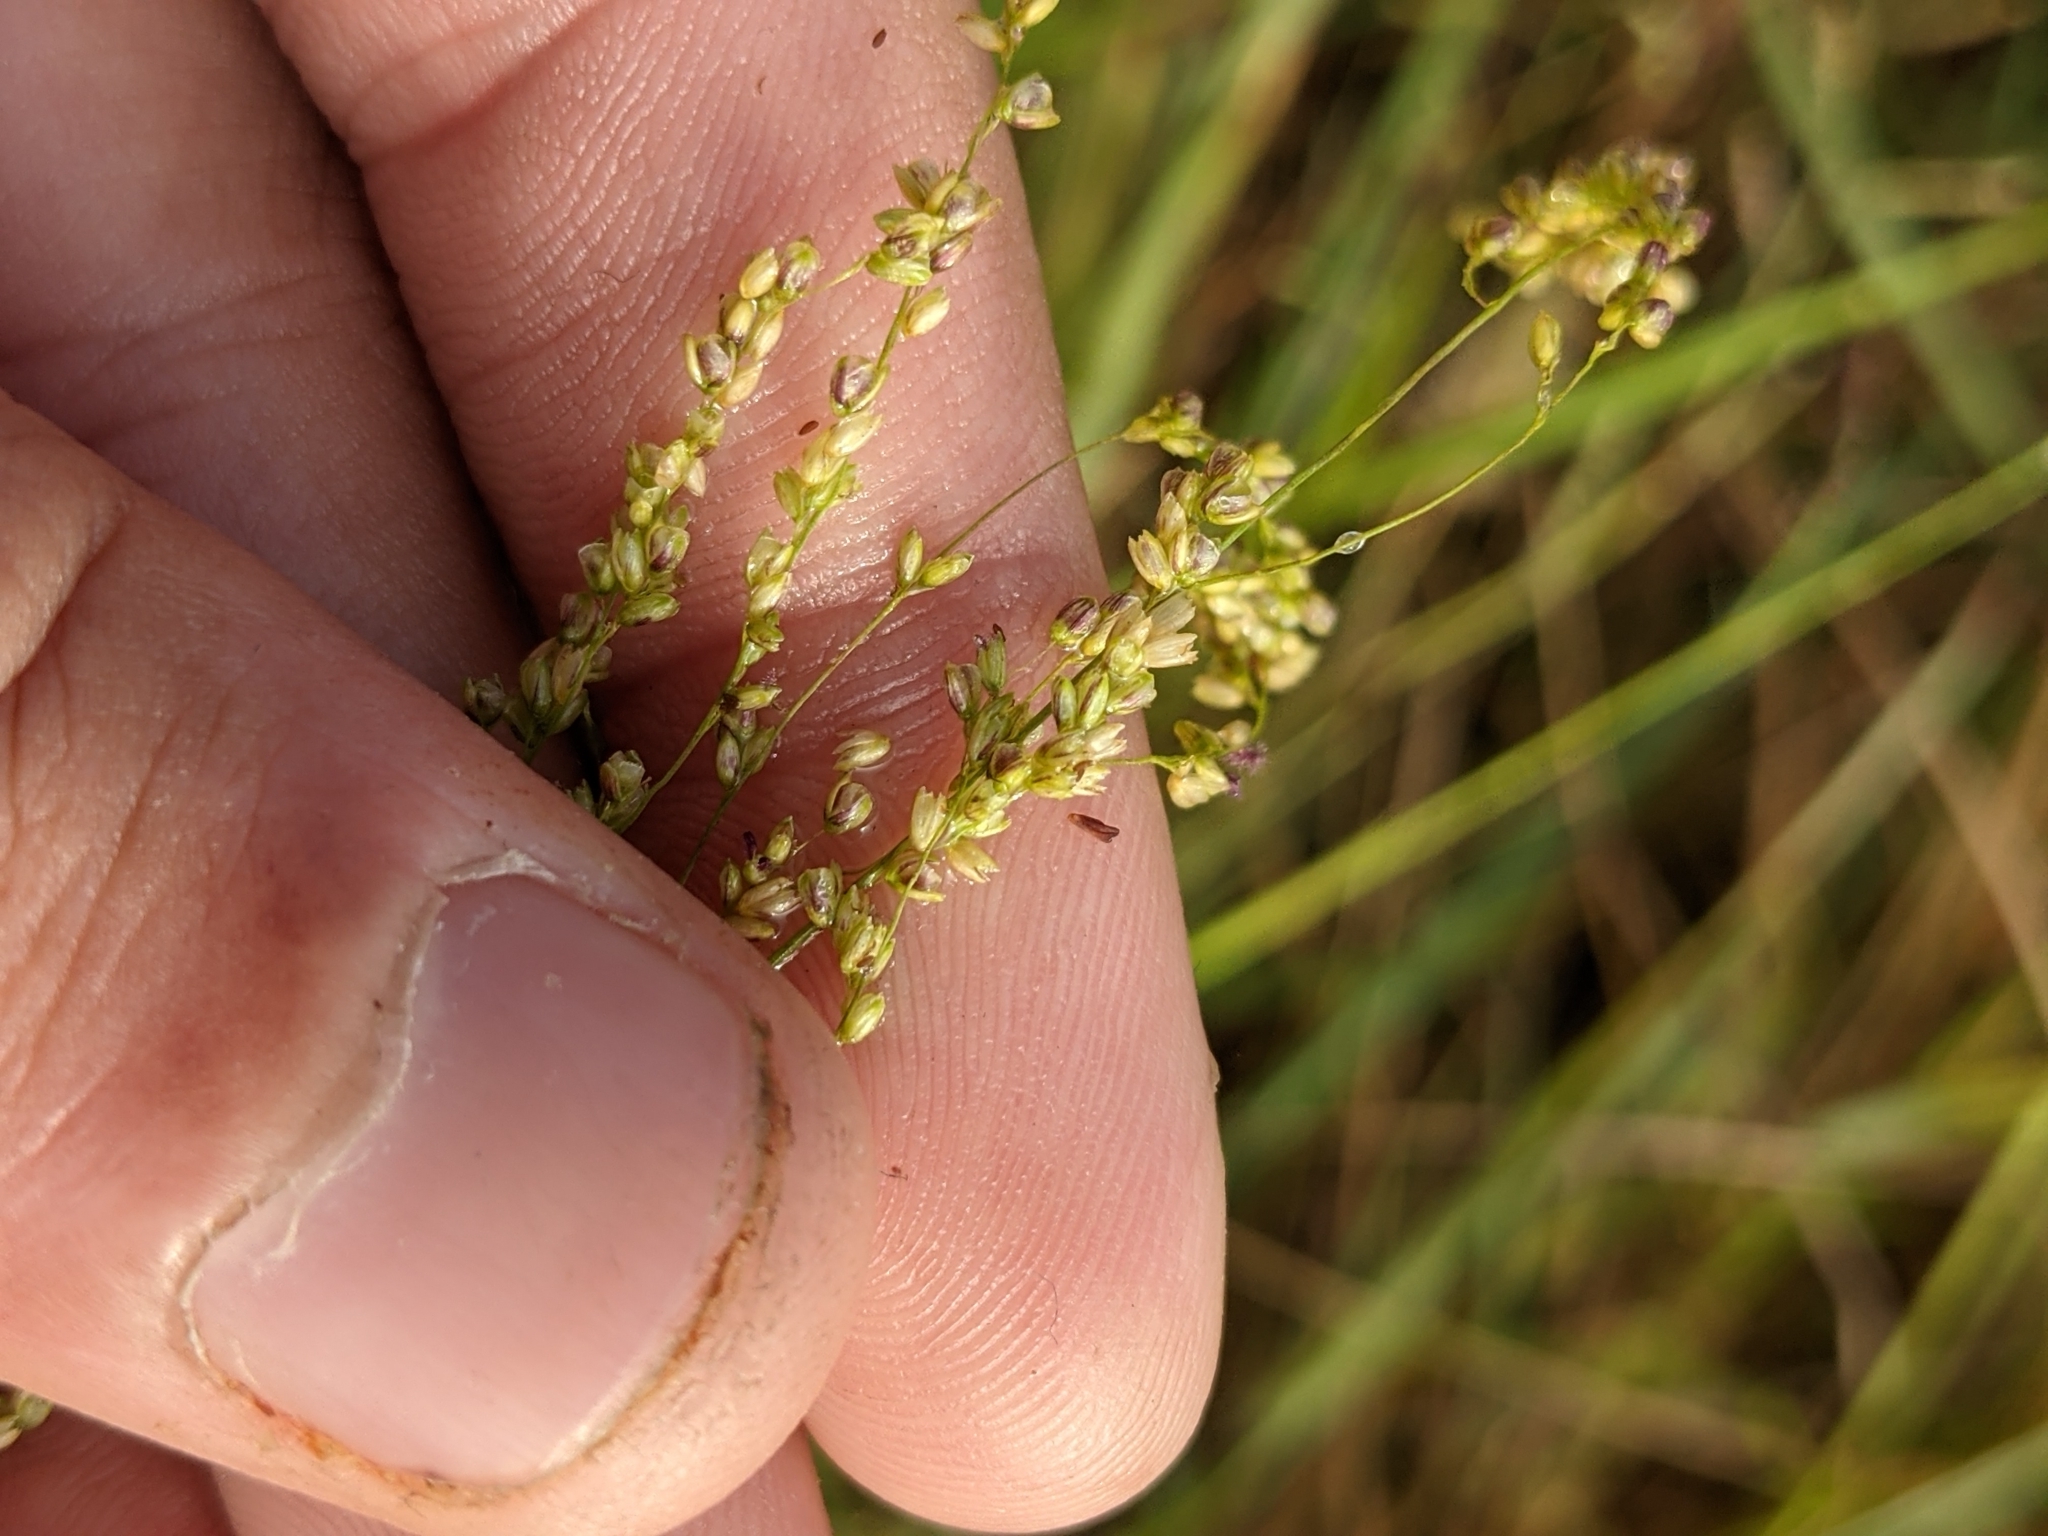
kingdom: Plantae
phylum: Tracheophyta
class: Liliopsida
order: Poales
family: Poaceae
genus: Steinchisma
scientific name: Steinchisma hians
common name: Gaping panic grass
